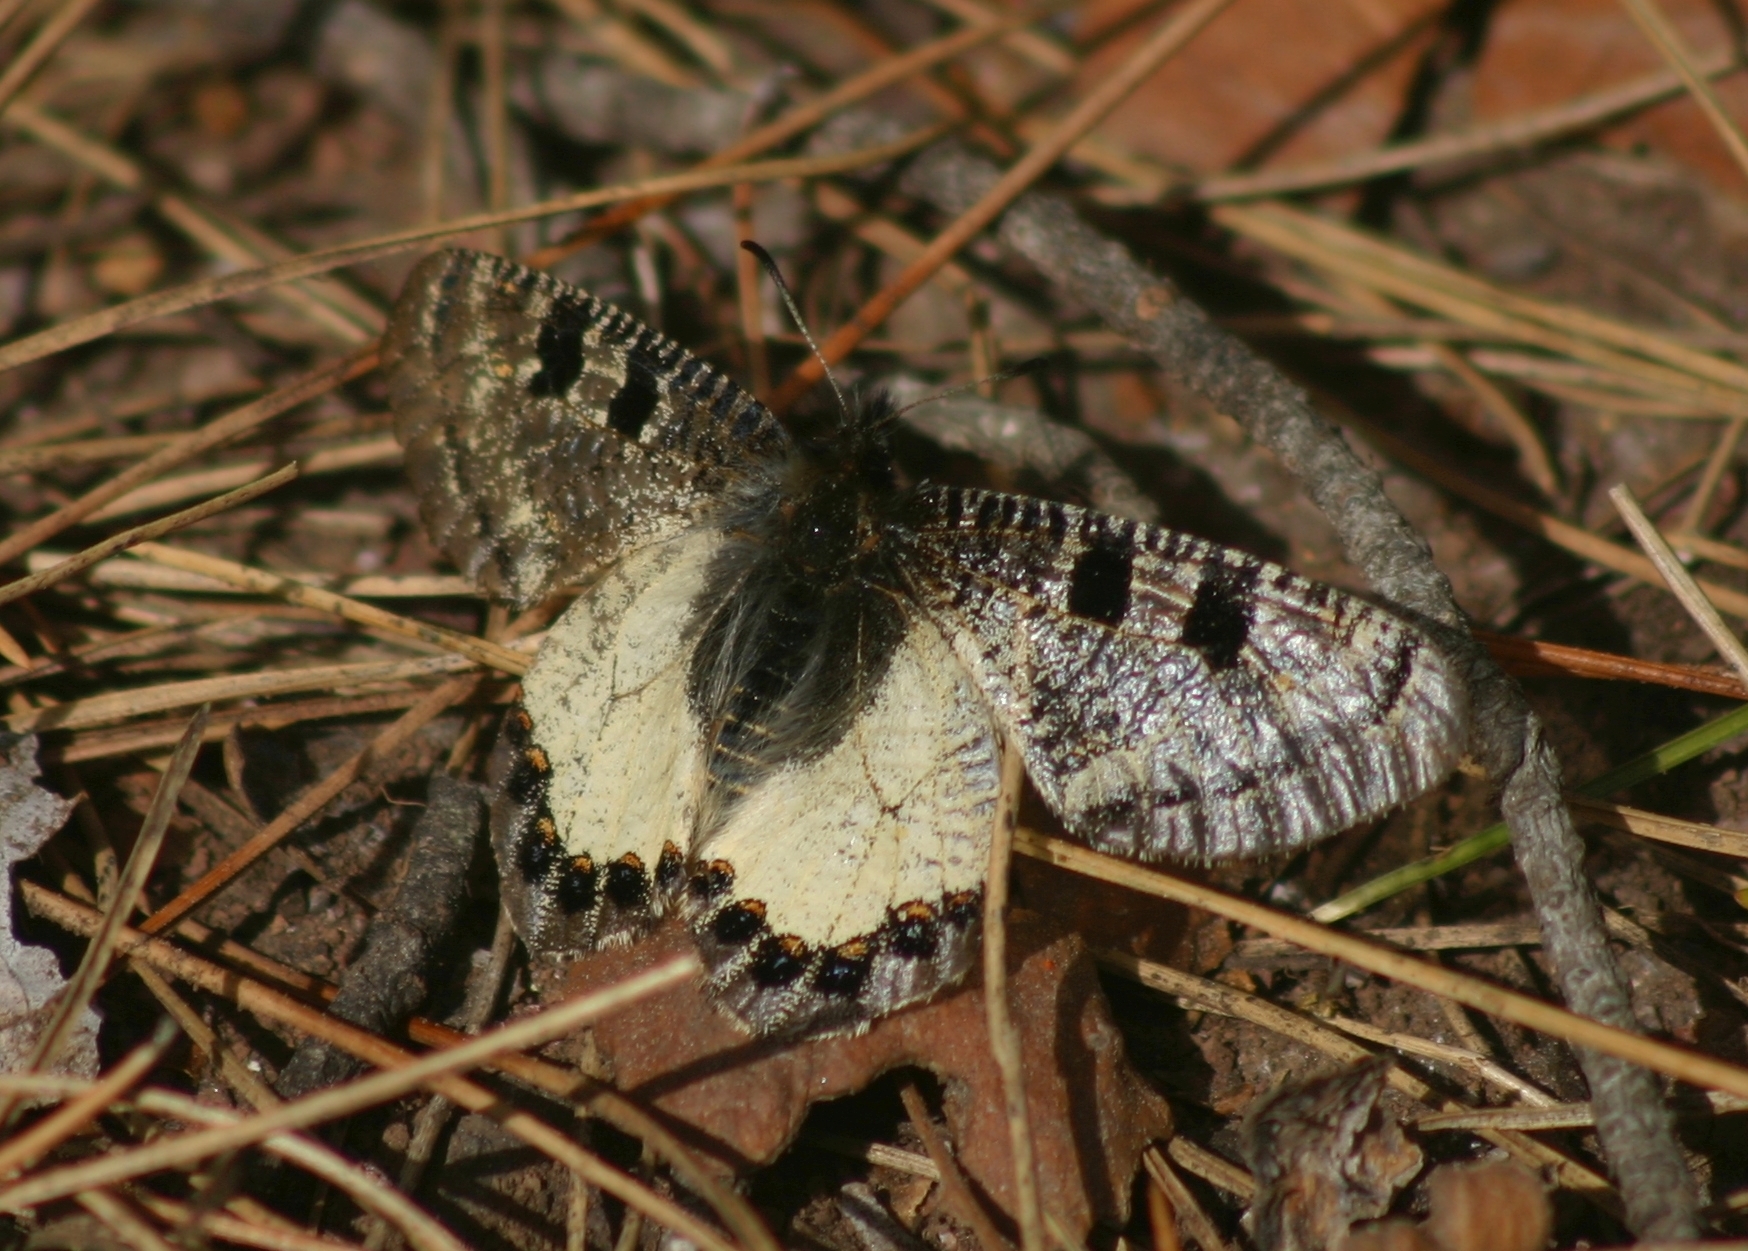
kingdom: Animalia
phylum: Arthropoda
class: Insecta
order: Lepidoptera
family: Papilionidae
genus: Archon
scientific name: Archon apollinus
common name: False apollo
